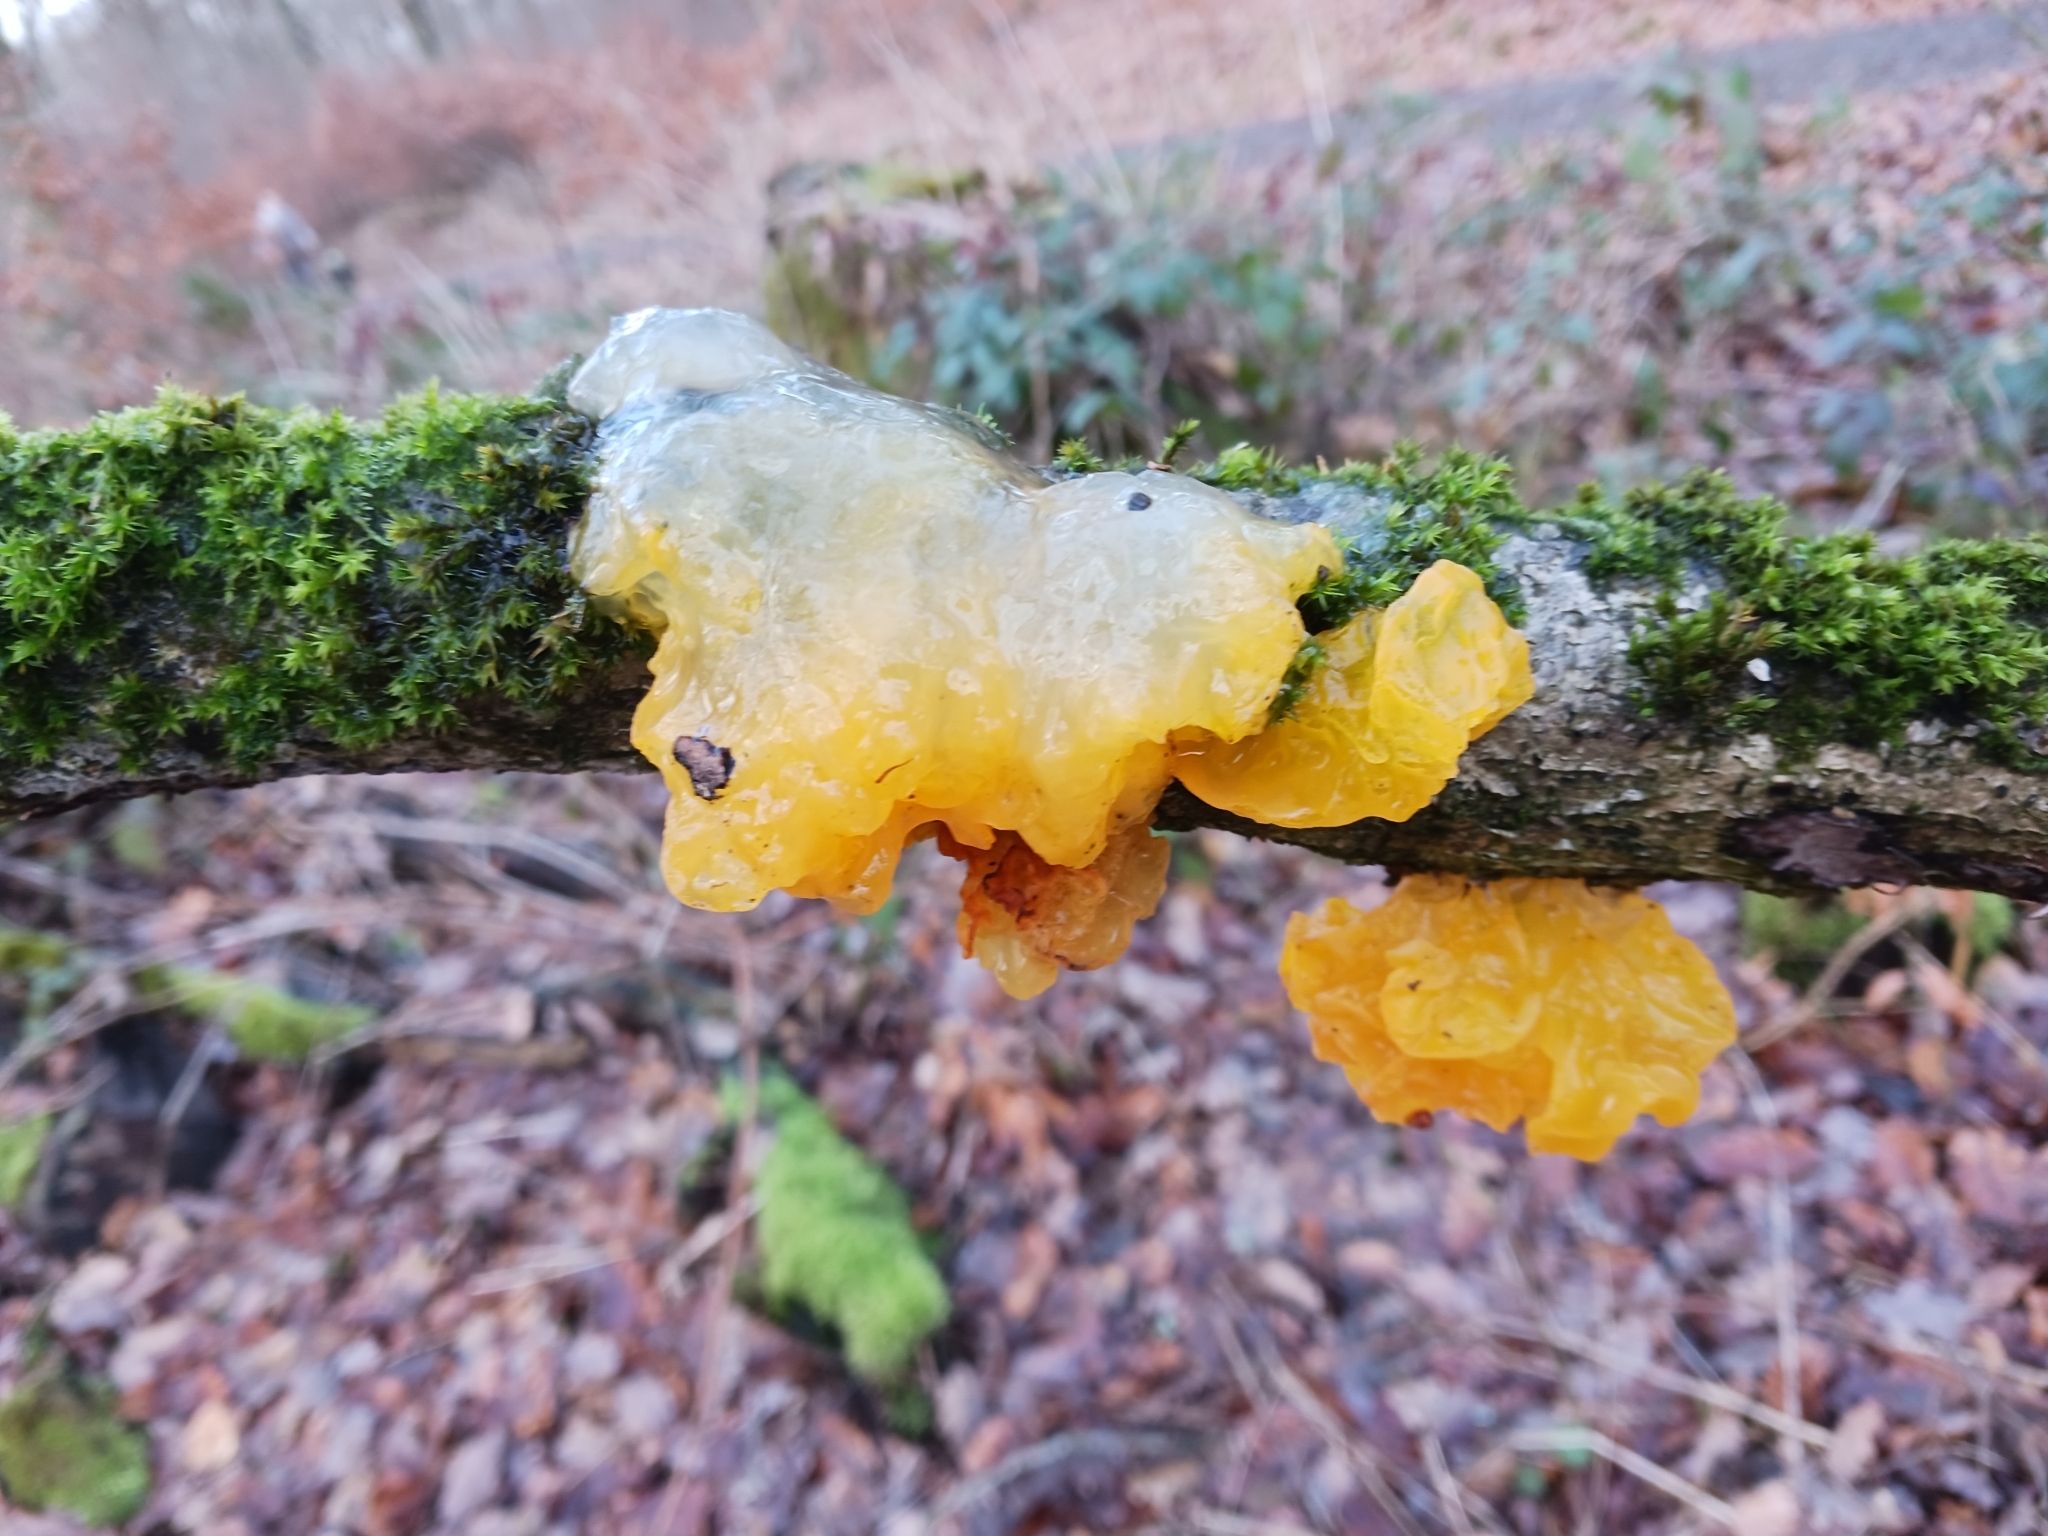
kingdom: Fungi
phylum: Basidiomycota
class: Tremellomycetes
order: Tremellales
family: Tremellaceae
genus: Tremella
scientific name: Tremella mesenterica
